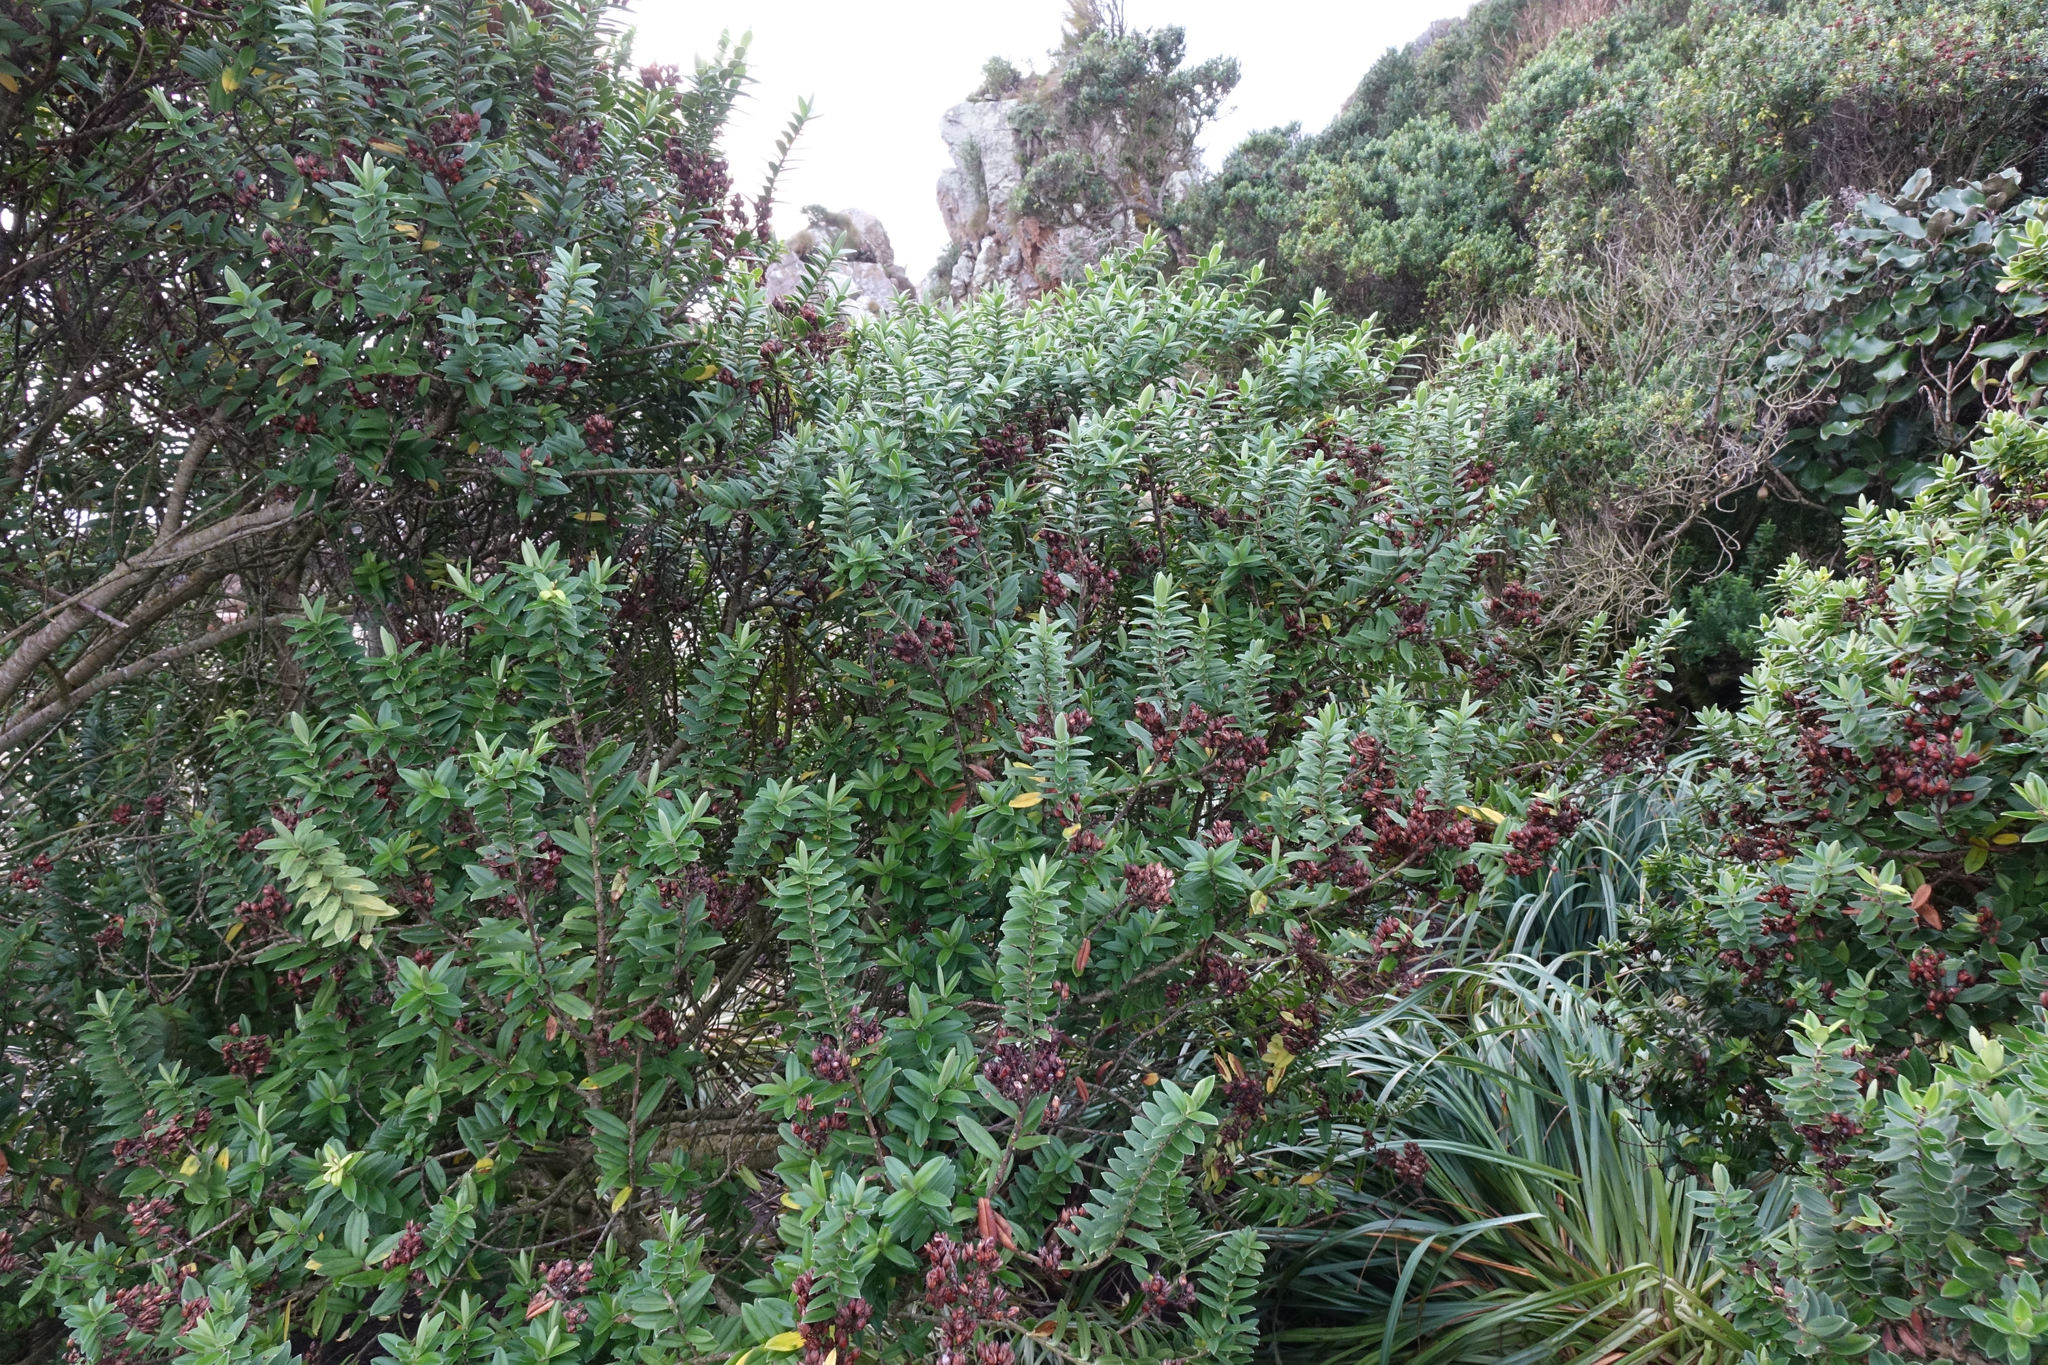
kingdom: Plantae
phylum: Tracheophyta
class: Magnoliopsida
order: Lamiales
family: Plantaginaceae
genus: Veronica
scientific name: Veronica elliptica
